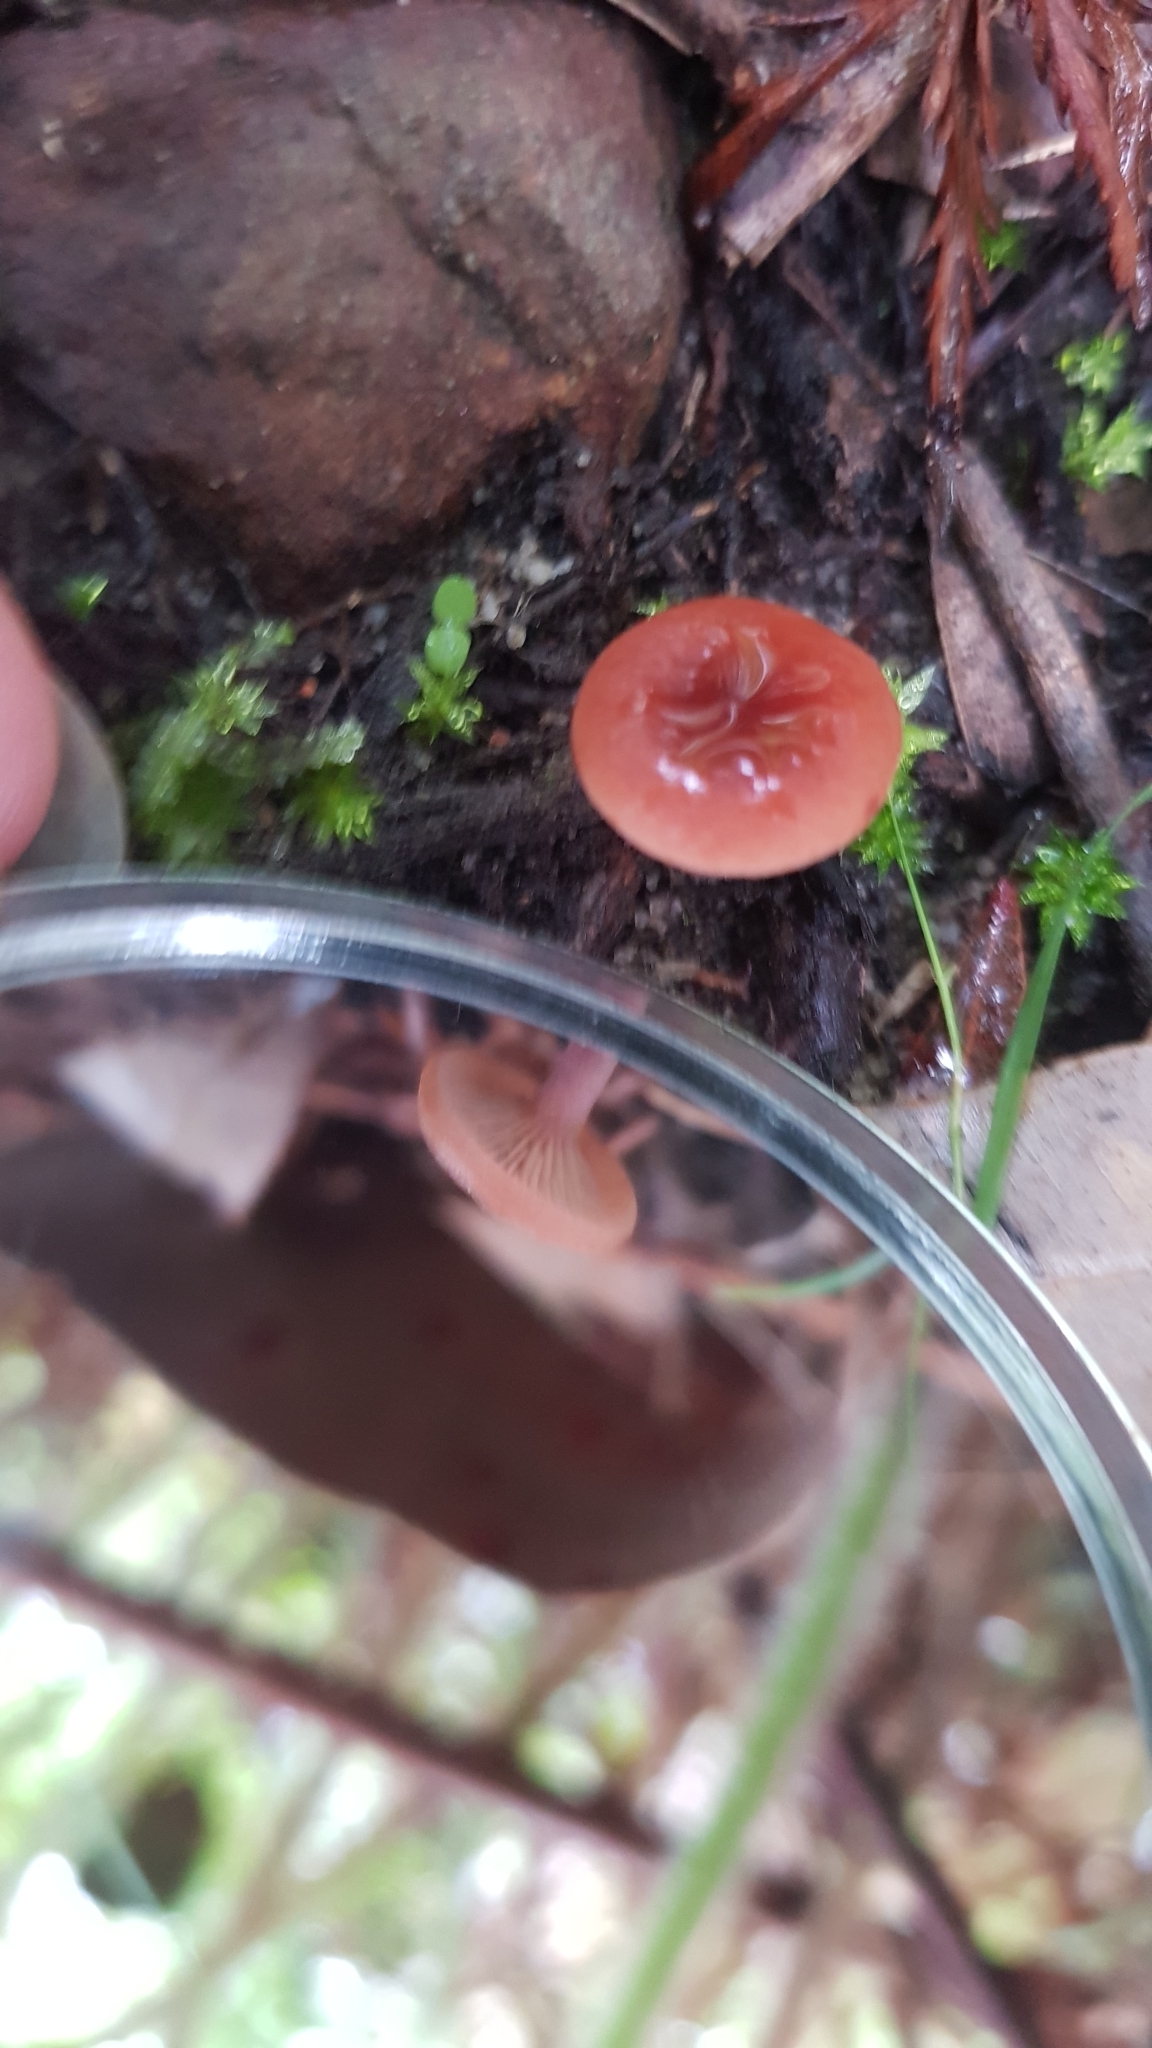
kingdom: Fungi
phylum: Basidiomycota
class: Agaricomycetes
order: Russulales
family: Russulaceae
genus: Lactarius
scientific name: Lactarius eucalypti
